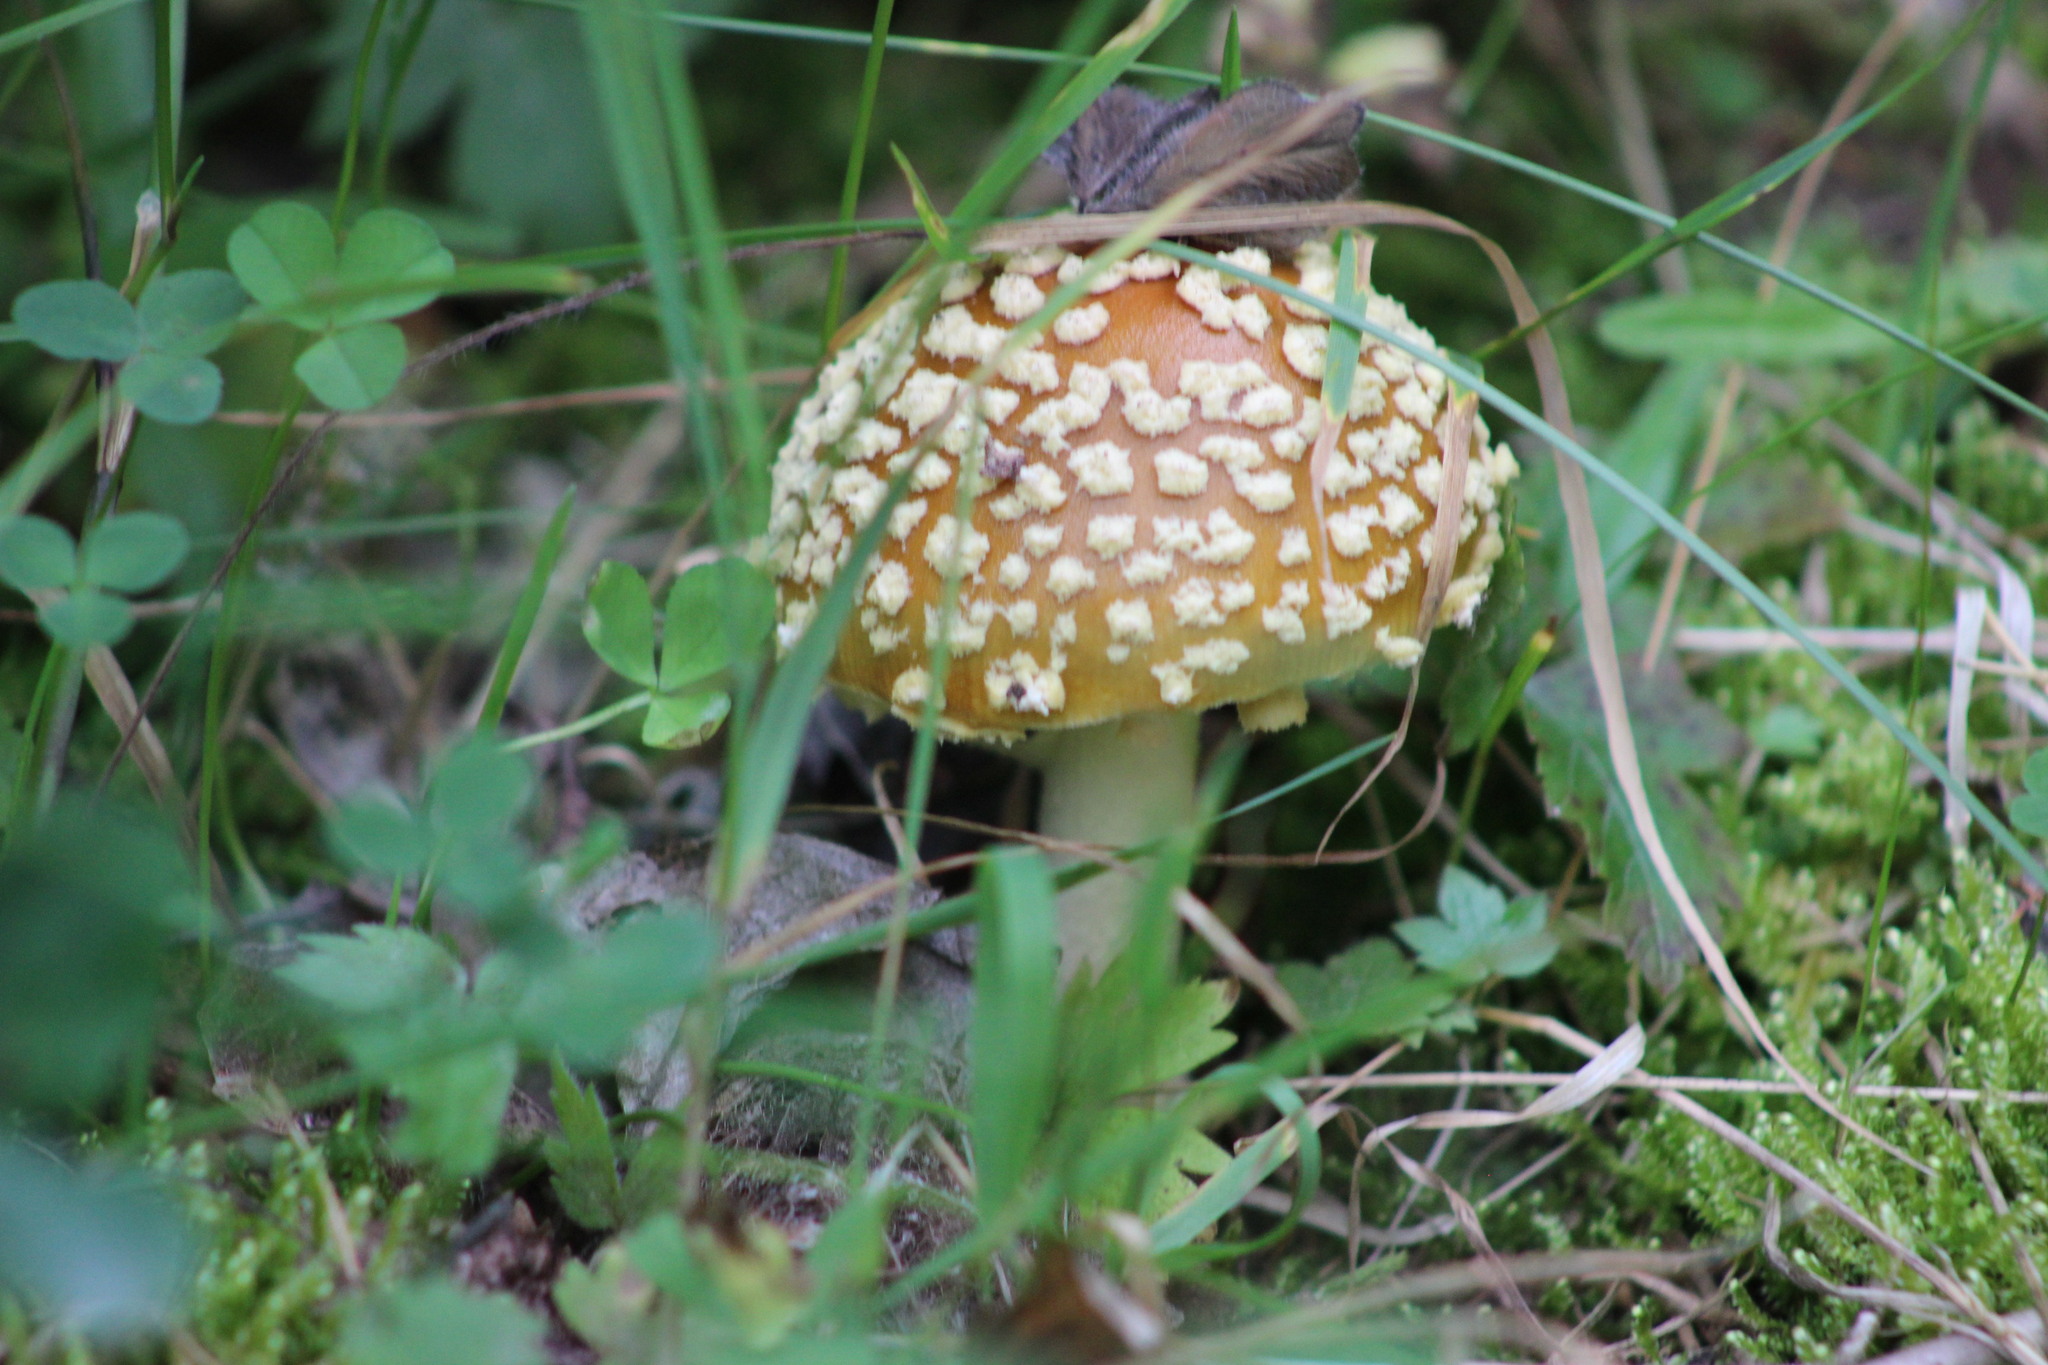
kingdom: Fungi
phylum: Basidiomycota
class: Agaricomycetes
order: Agaricales
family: Amanitaceae
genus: Amanita
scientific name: Amanita regalis
